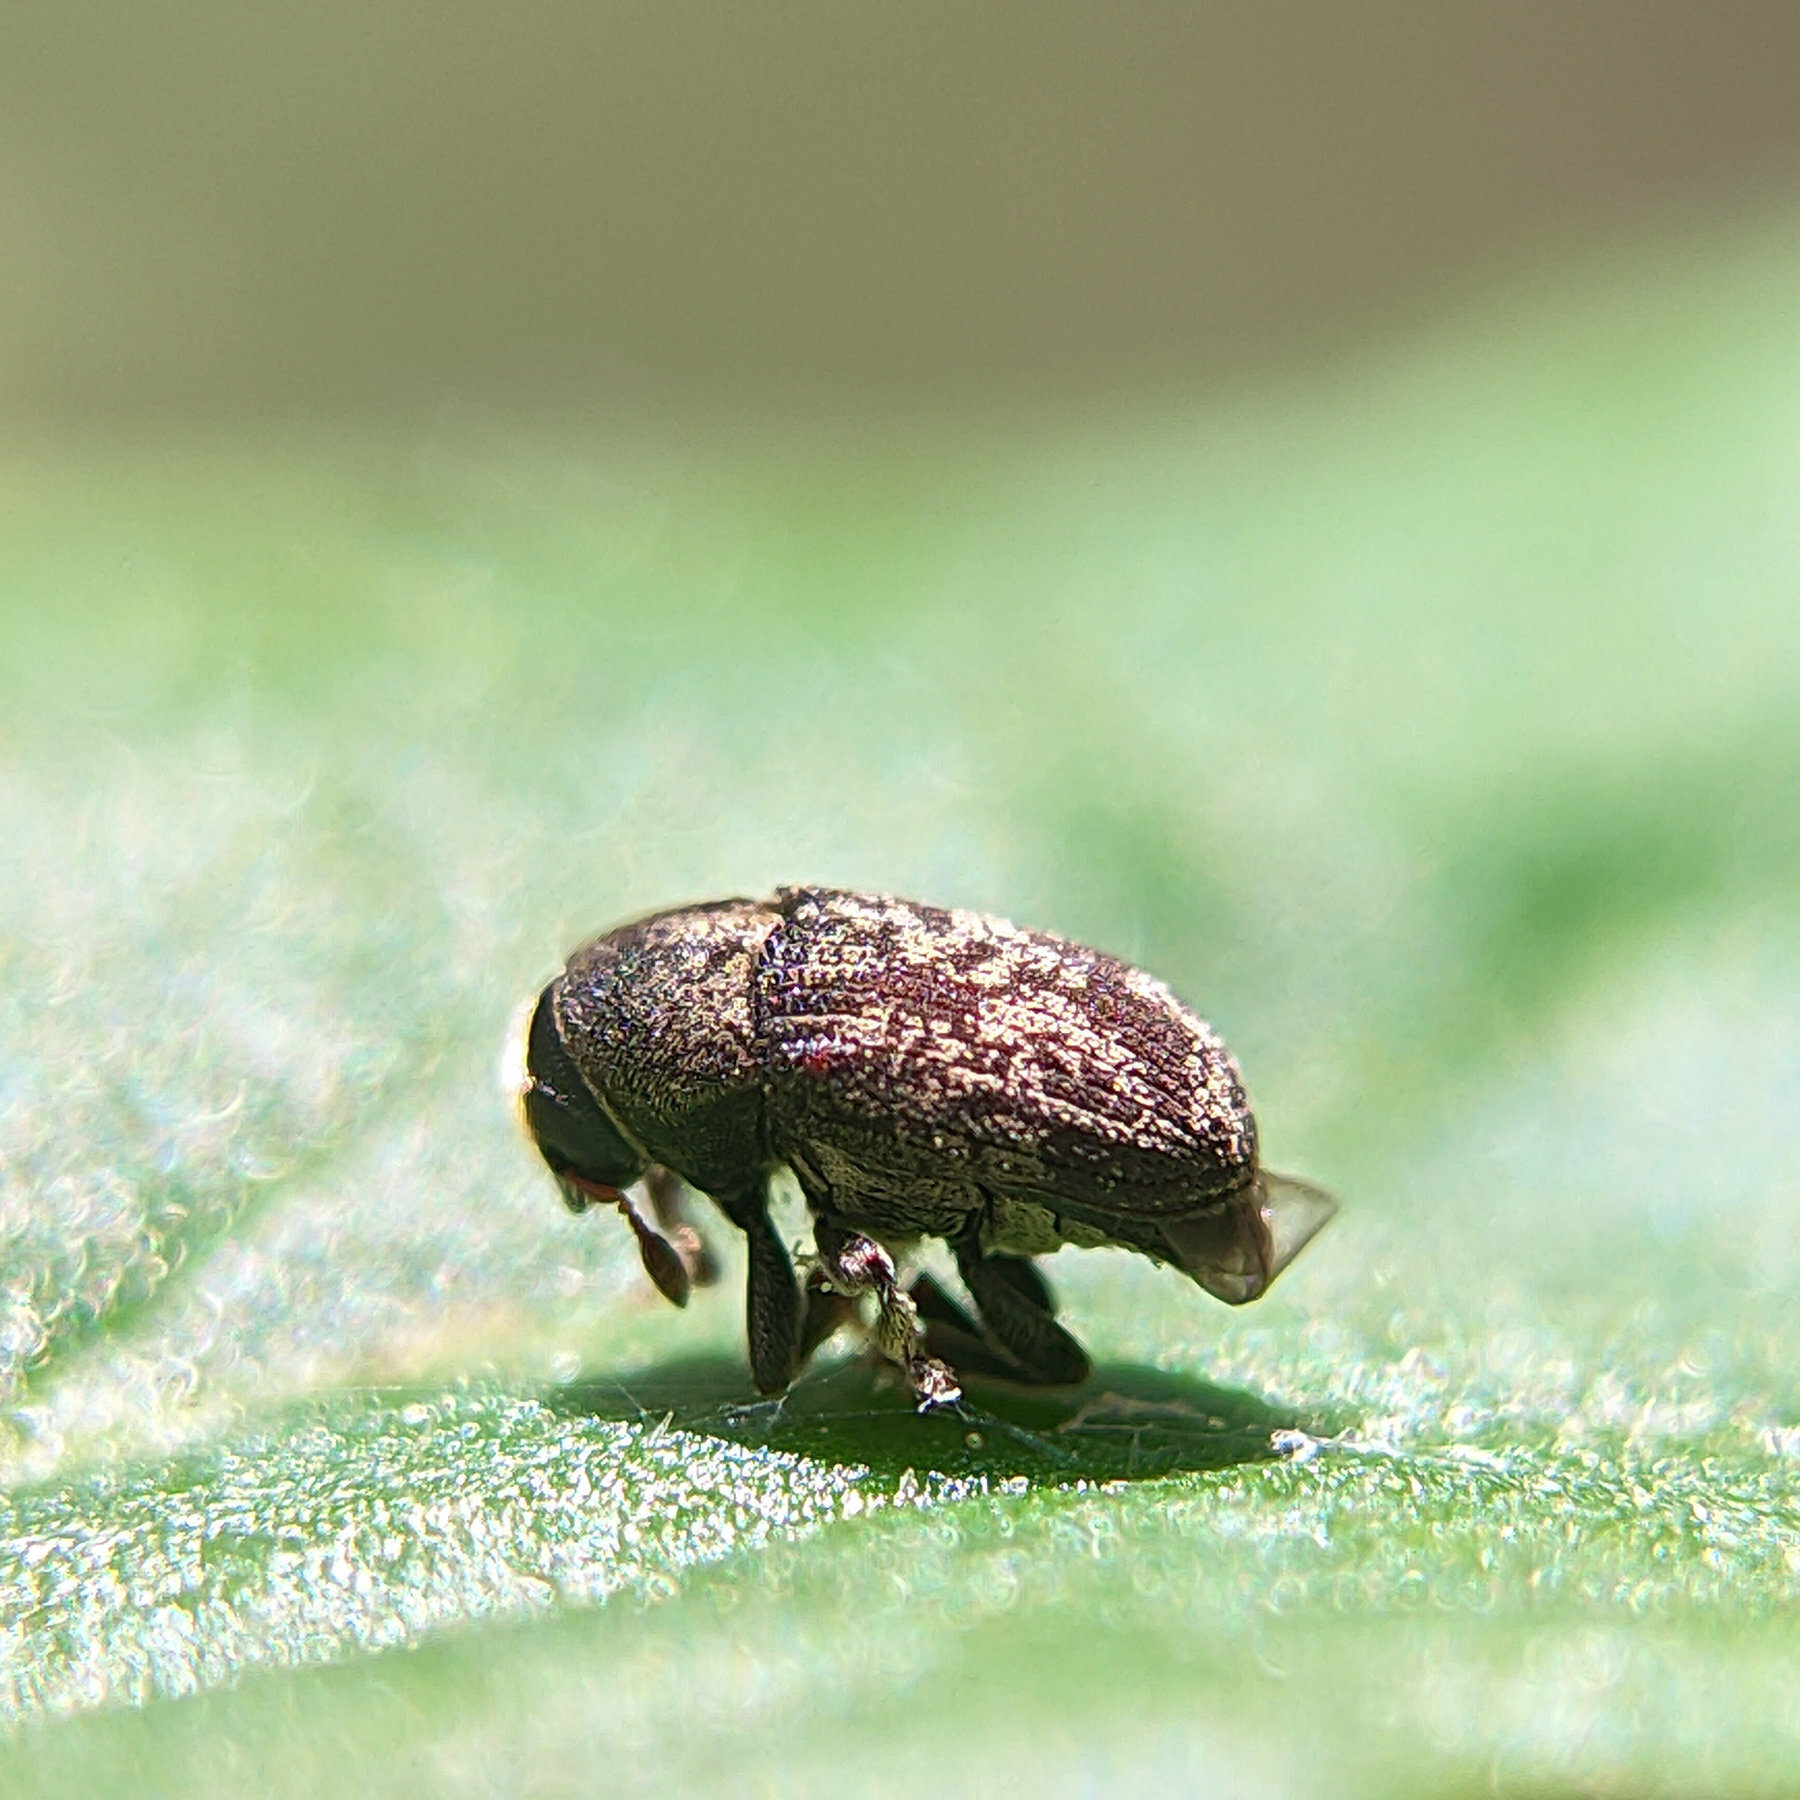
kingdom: Animalia
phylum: Arthropoda
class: Insecta
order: Coleoptera
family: Curculionidae
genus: Hylesinus
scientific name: Hylesinus varius
